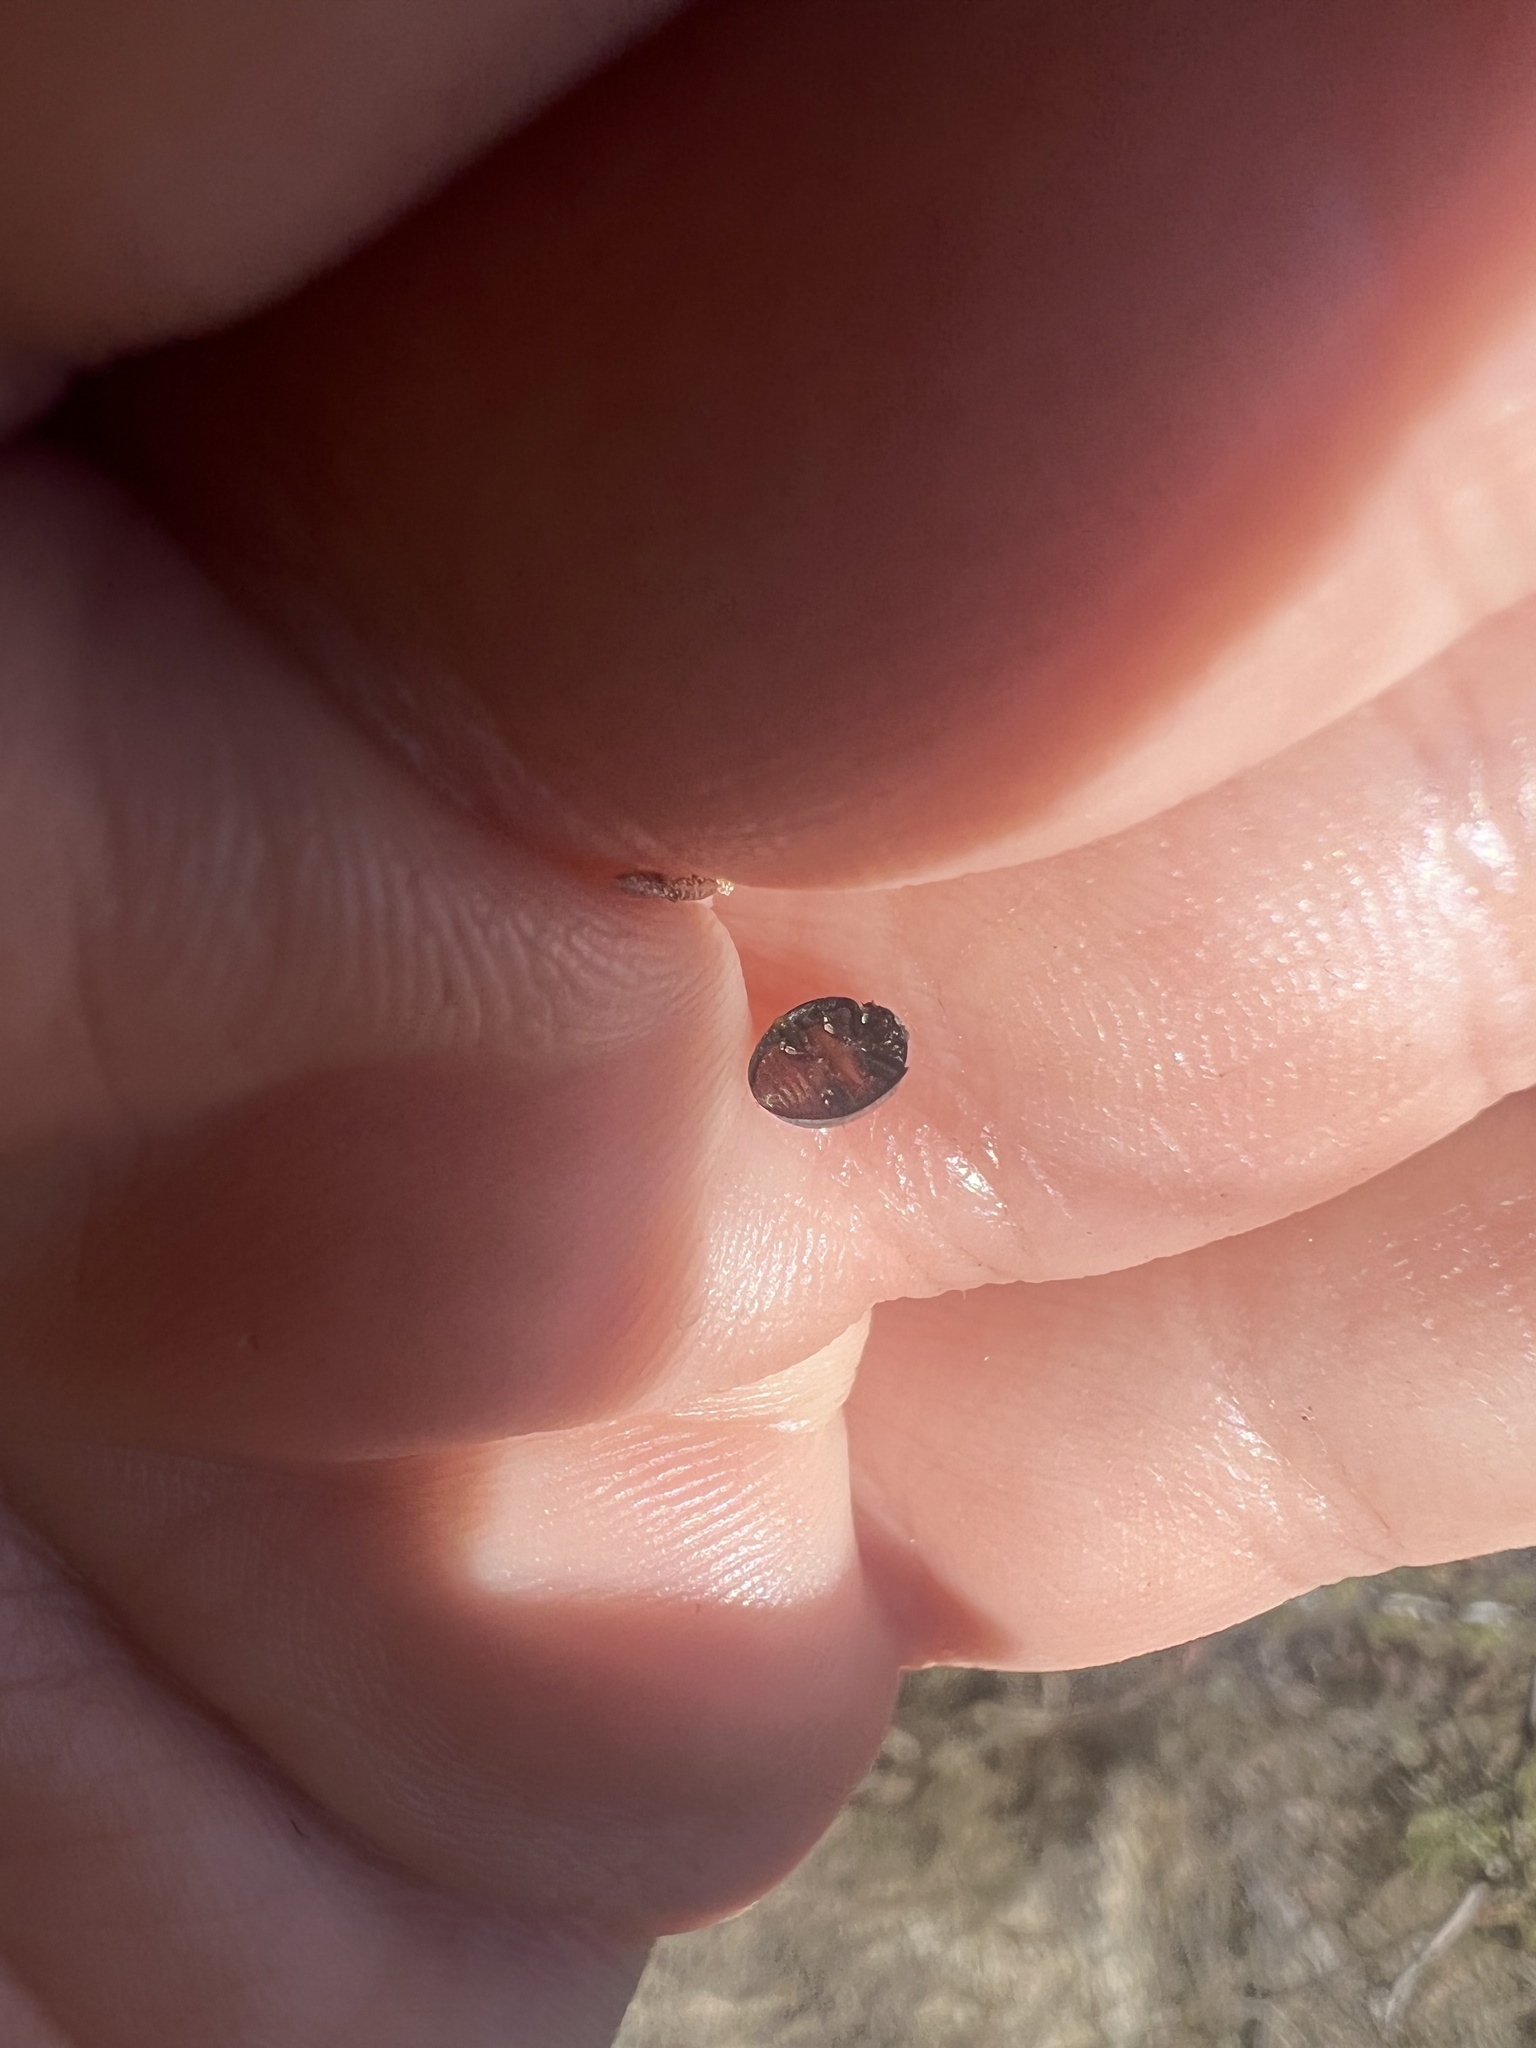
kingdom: Animalia
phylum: Arthropoda
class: Insecta
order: Coleoptera
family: Coccinellidae
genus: Chilocorus
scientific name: Chilocorus cacti
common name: Cactus lady beetle
